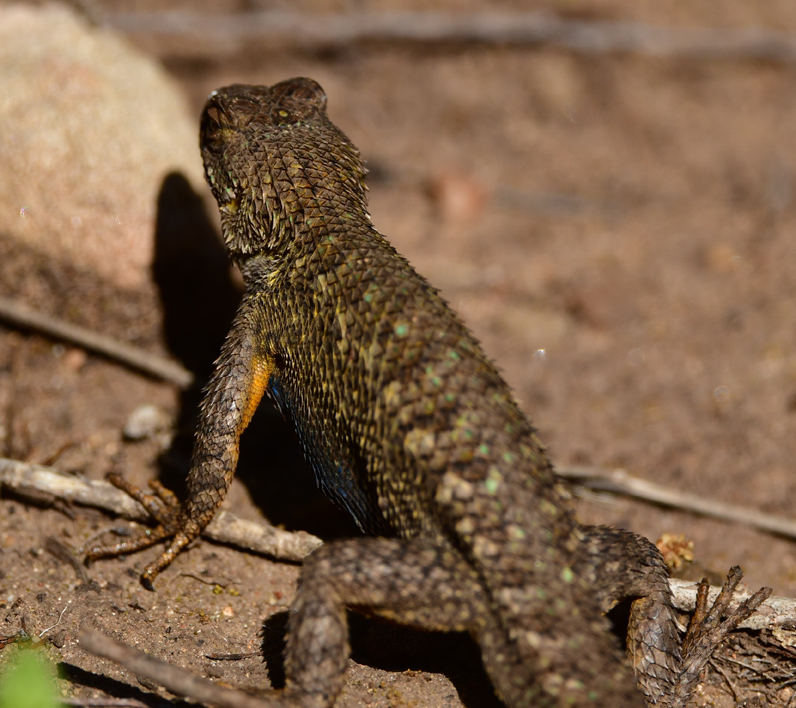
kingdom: Animalia
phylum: Chordata
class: Squamata
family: Phrynosomatidae
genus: Sceloporus
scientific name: Sceloporus occidentalis
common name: Western fence lizard
